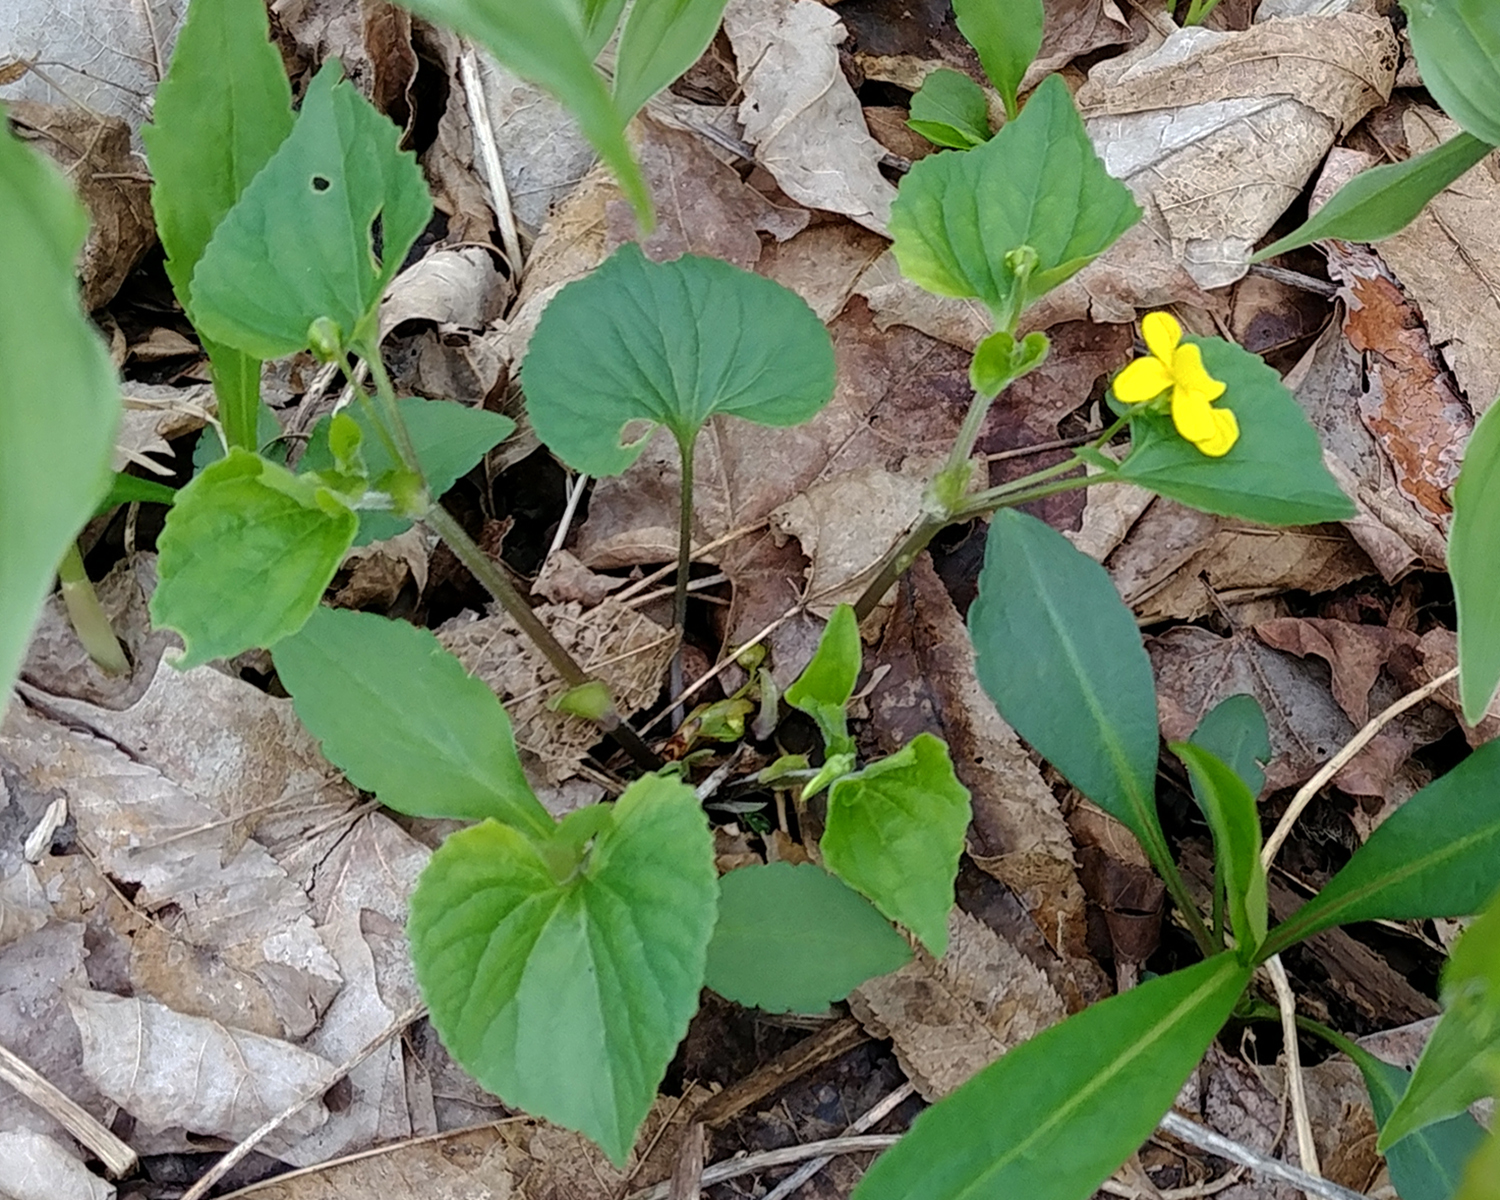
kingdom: Plantae
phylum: Tracheophyta
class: Magnoliopsida
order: Malpighiales
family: Violaceae
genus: Viola
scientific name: Viola eriocarpa
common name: Smooth yellow violet
